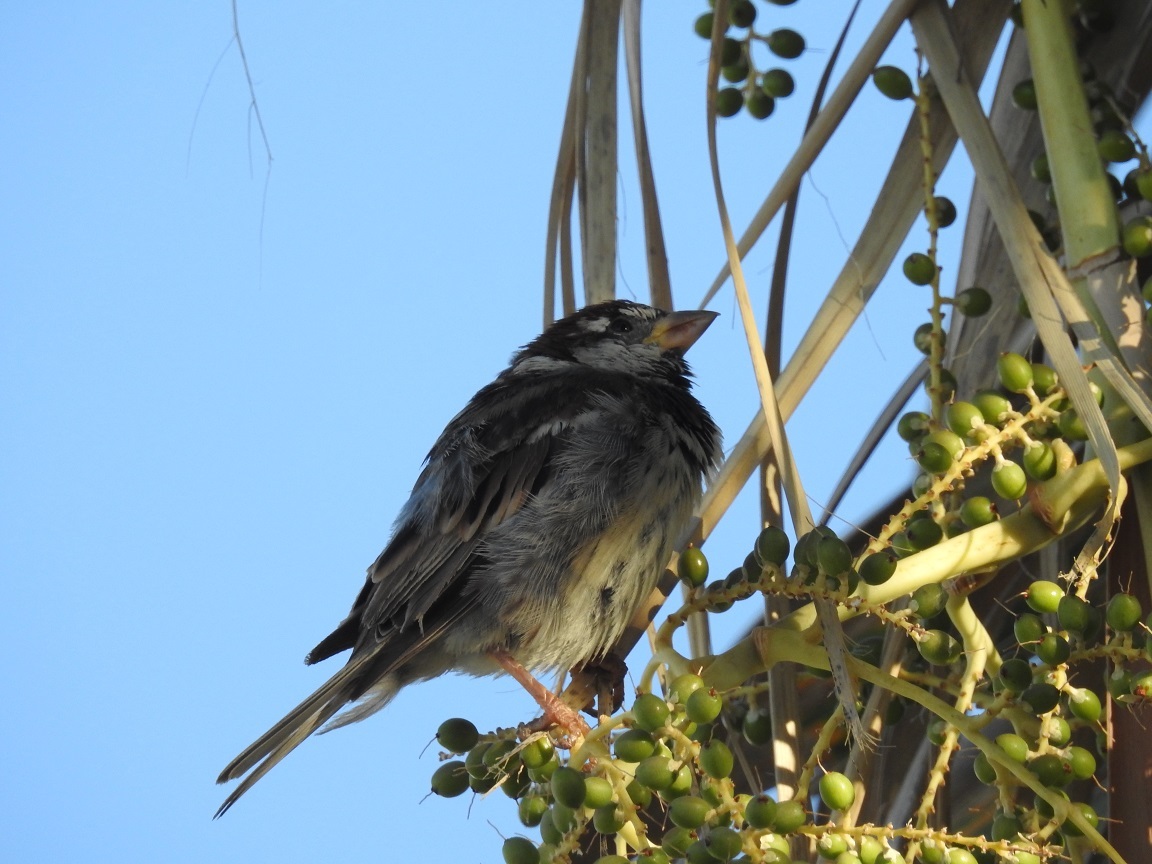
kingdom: Animalia
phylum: Chordata
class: Aves
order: Passeriformes
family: Passeridae
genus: Passer
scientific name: Passer hispaniolensis
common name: Spanish sparrow
